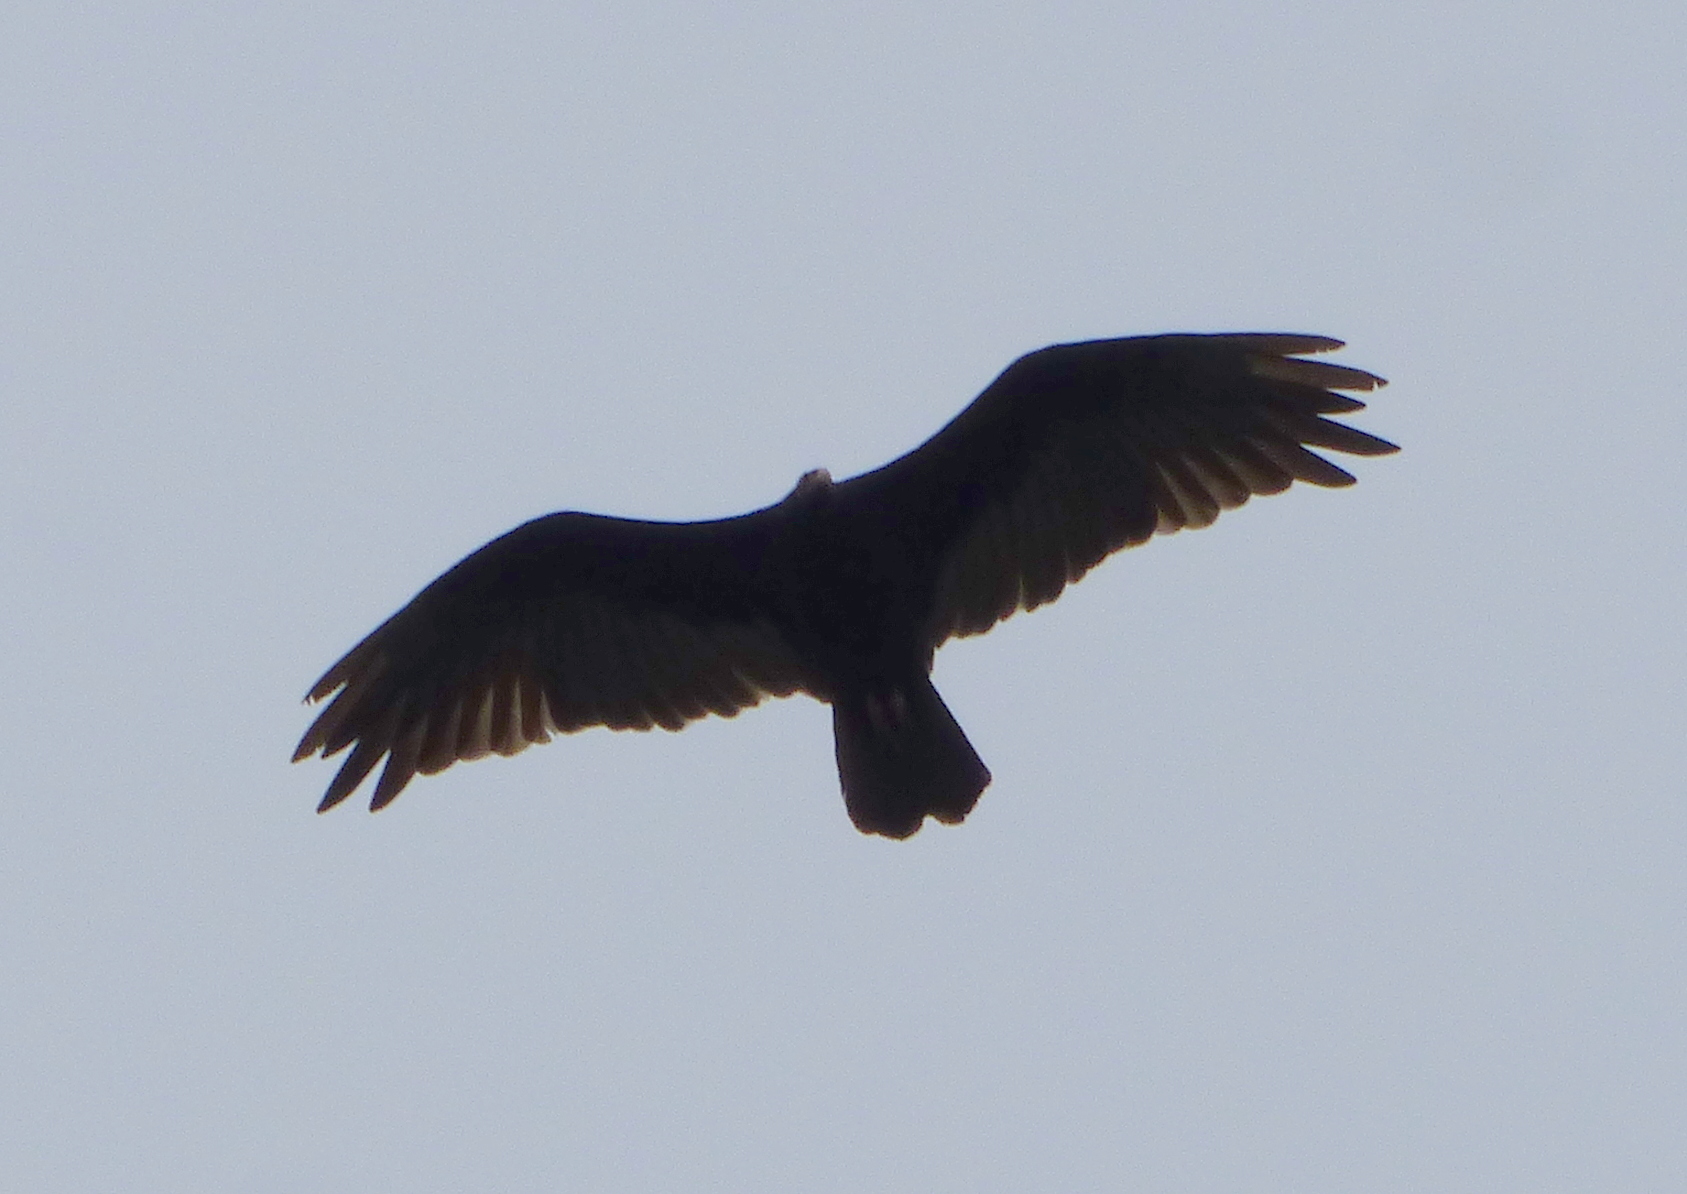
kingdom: Animalia
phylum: Chordata
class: Aves
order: Accipitriformes
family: Cathartidae
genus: Cathartes
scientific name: Cathartes aura
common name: Turkey vulture
